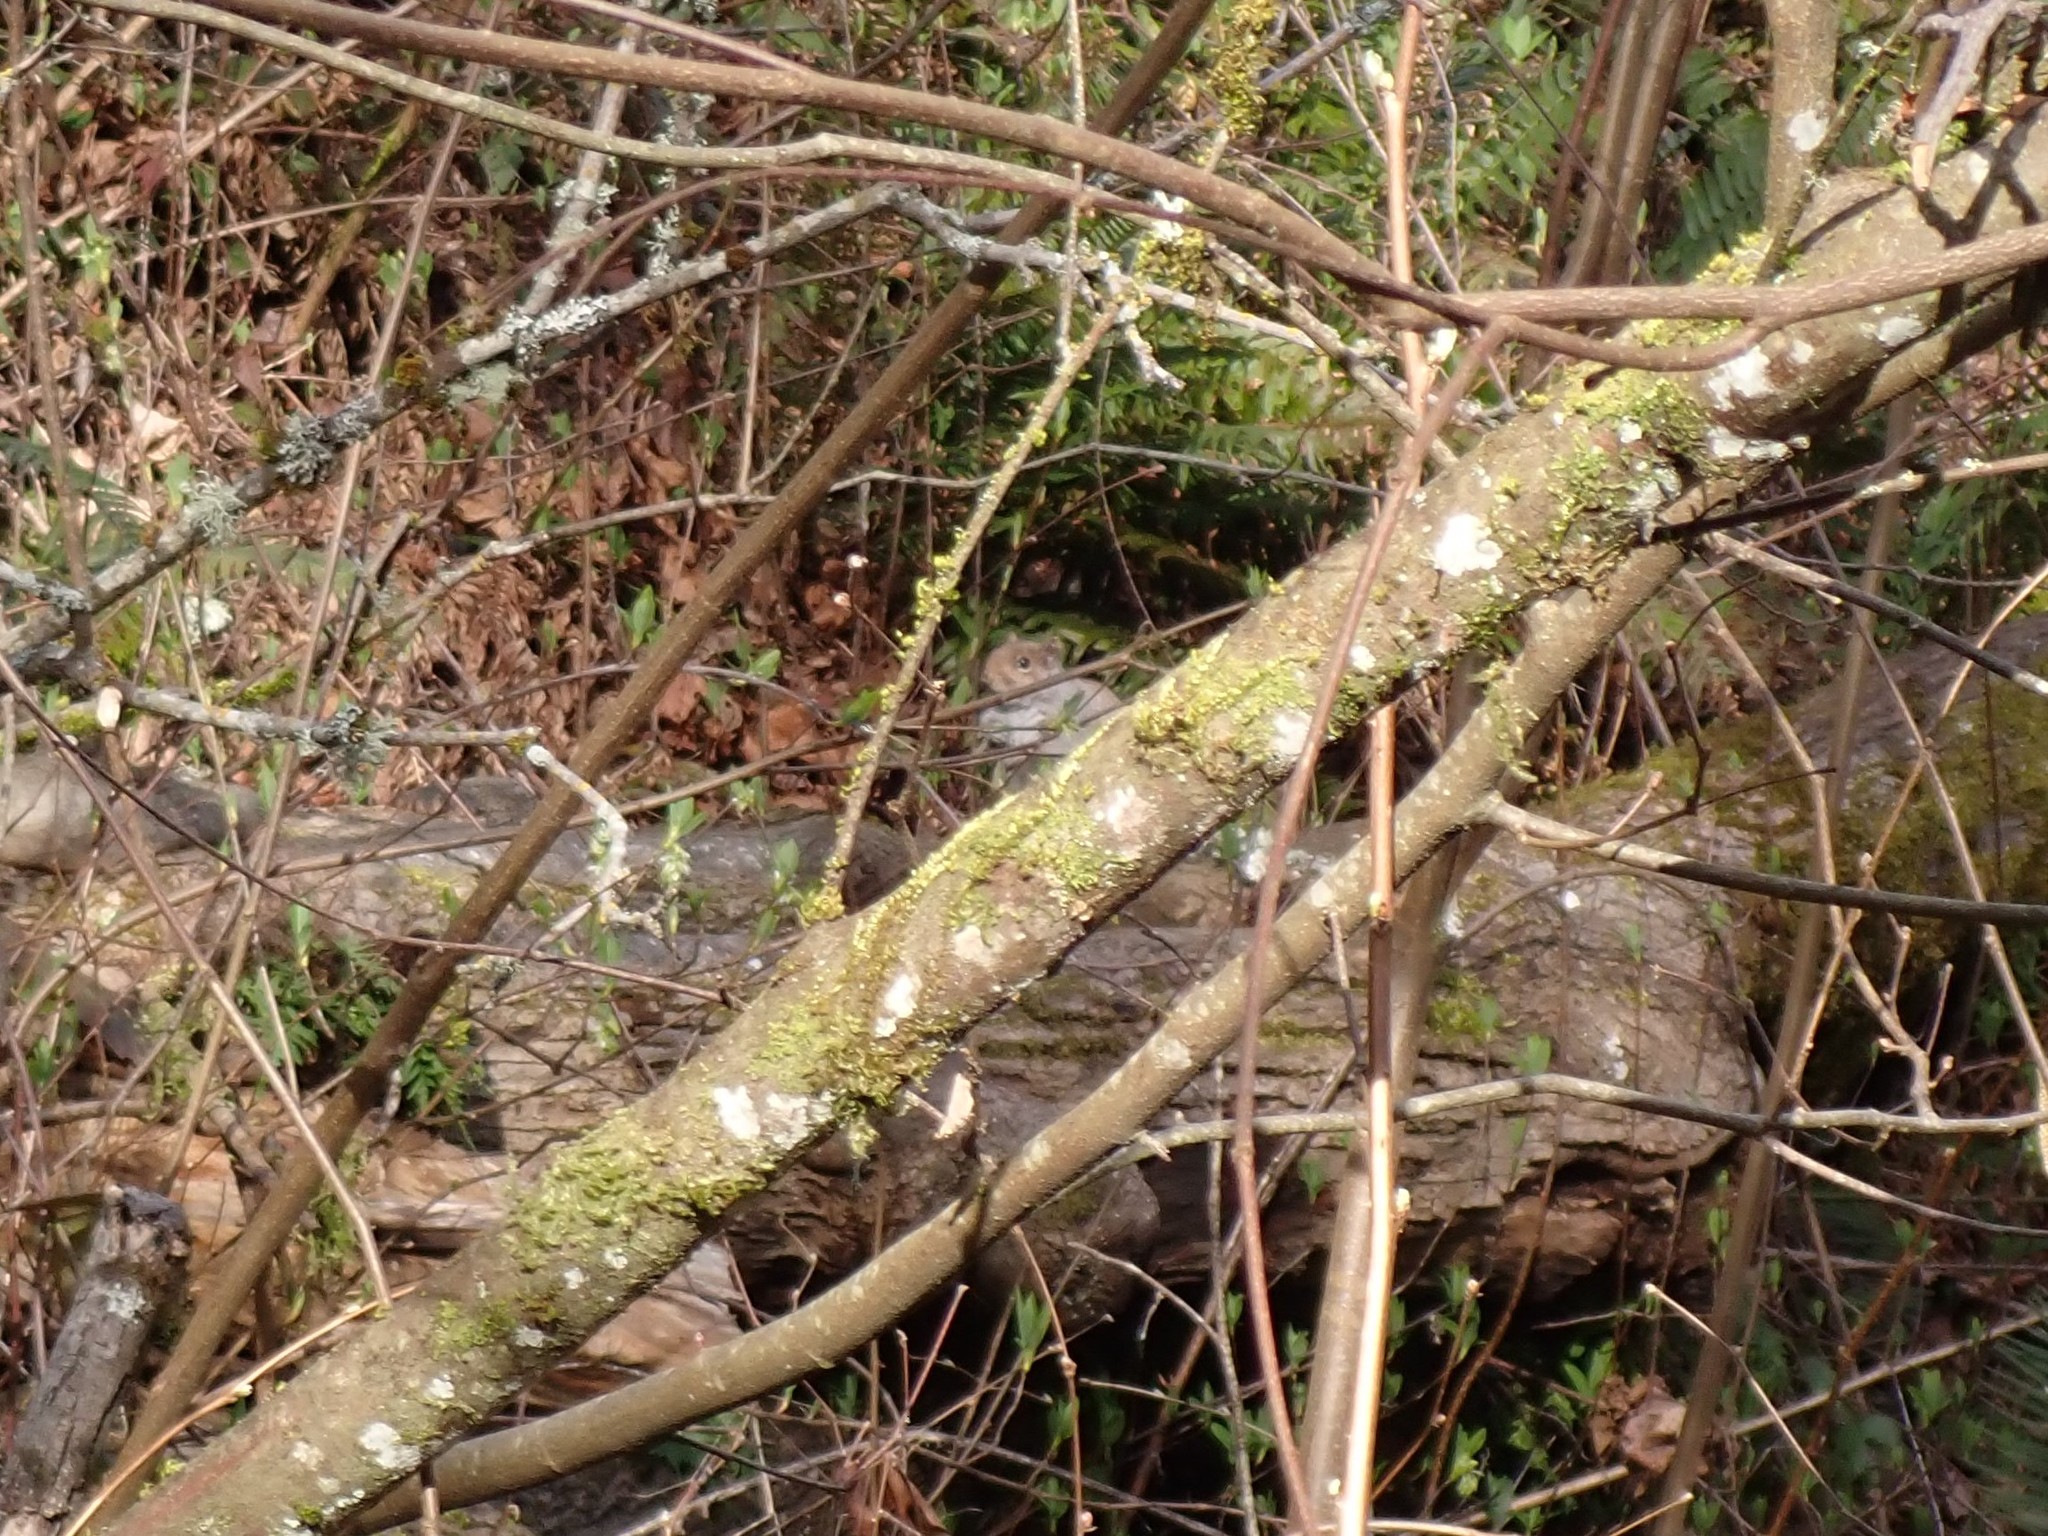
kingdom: Animalia
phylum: Chordata
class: Mammalia
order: Rodentia
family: Sciuridae
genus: Sciurus
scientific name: Sciurus carolinensis
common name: Eastern gray squirrel
